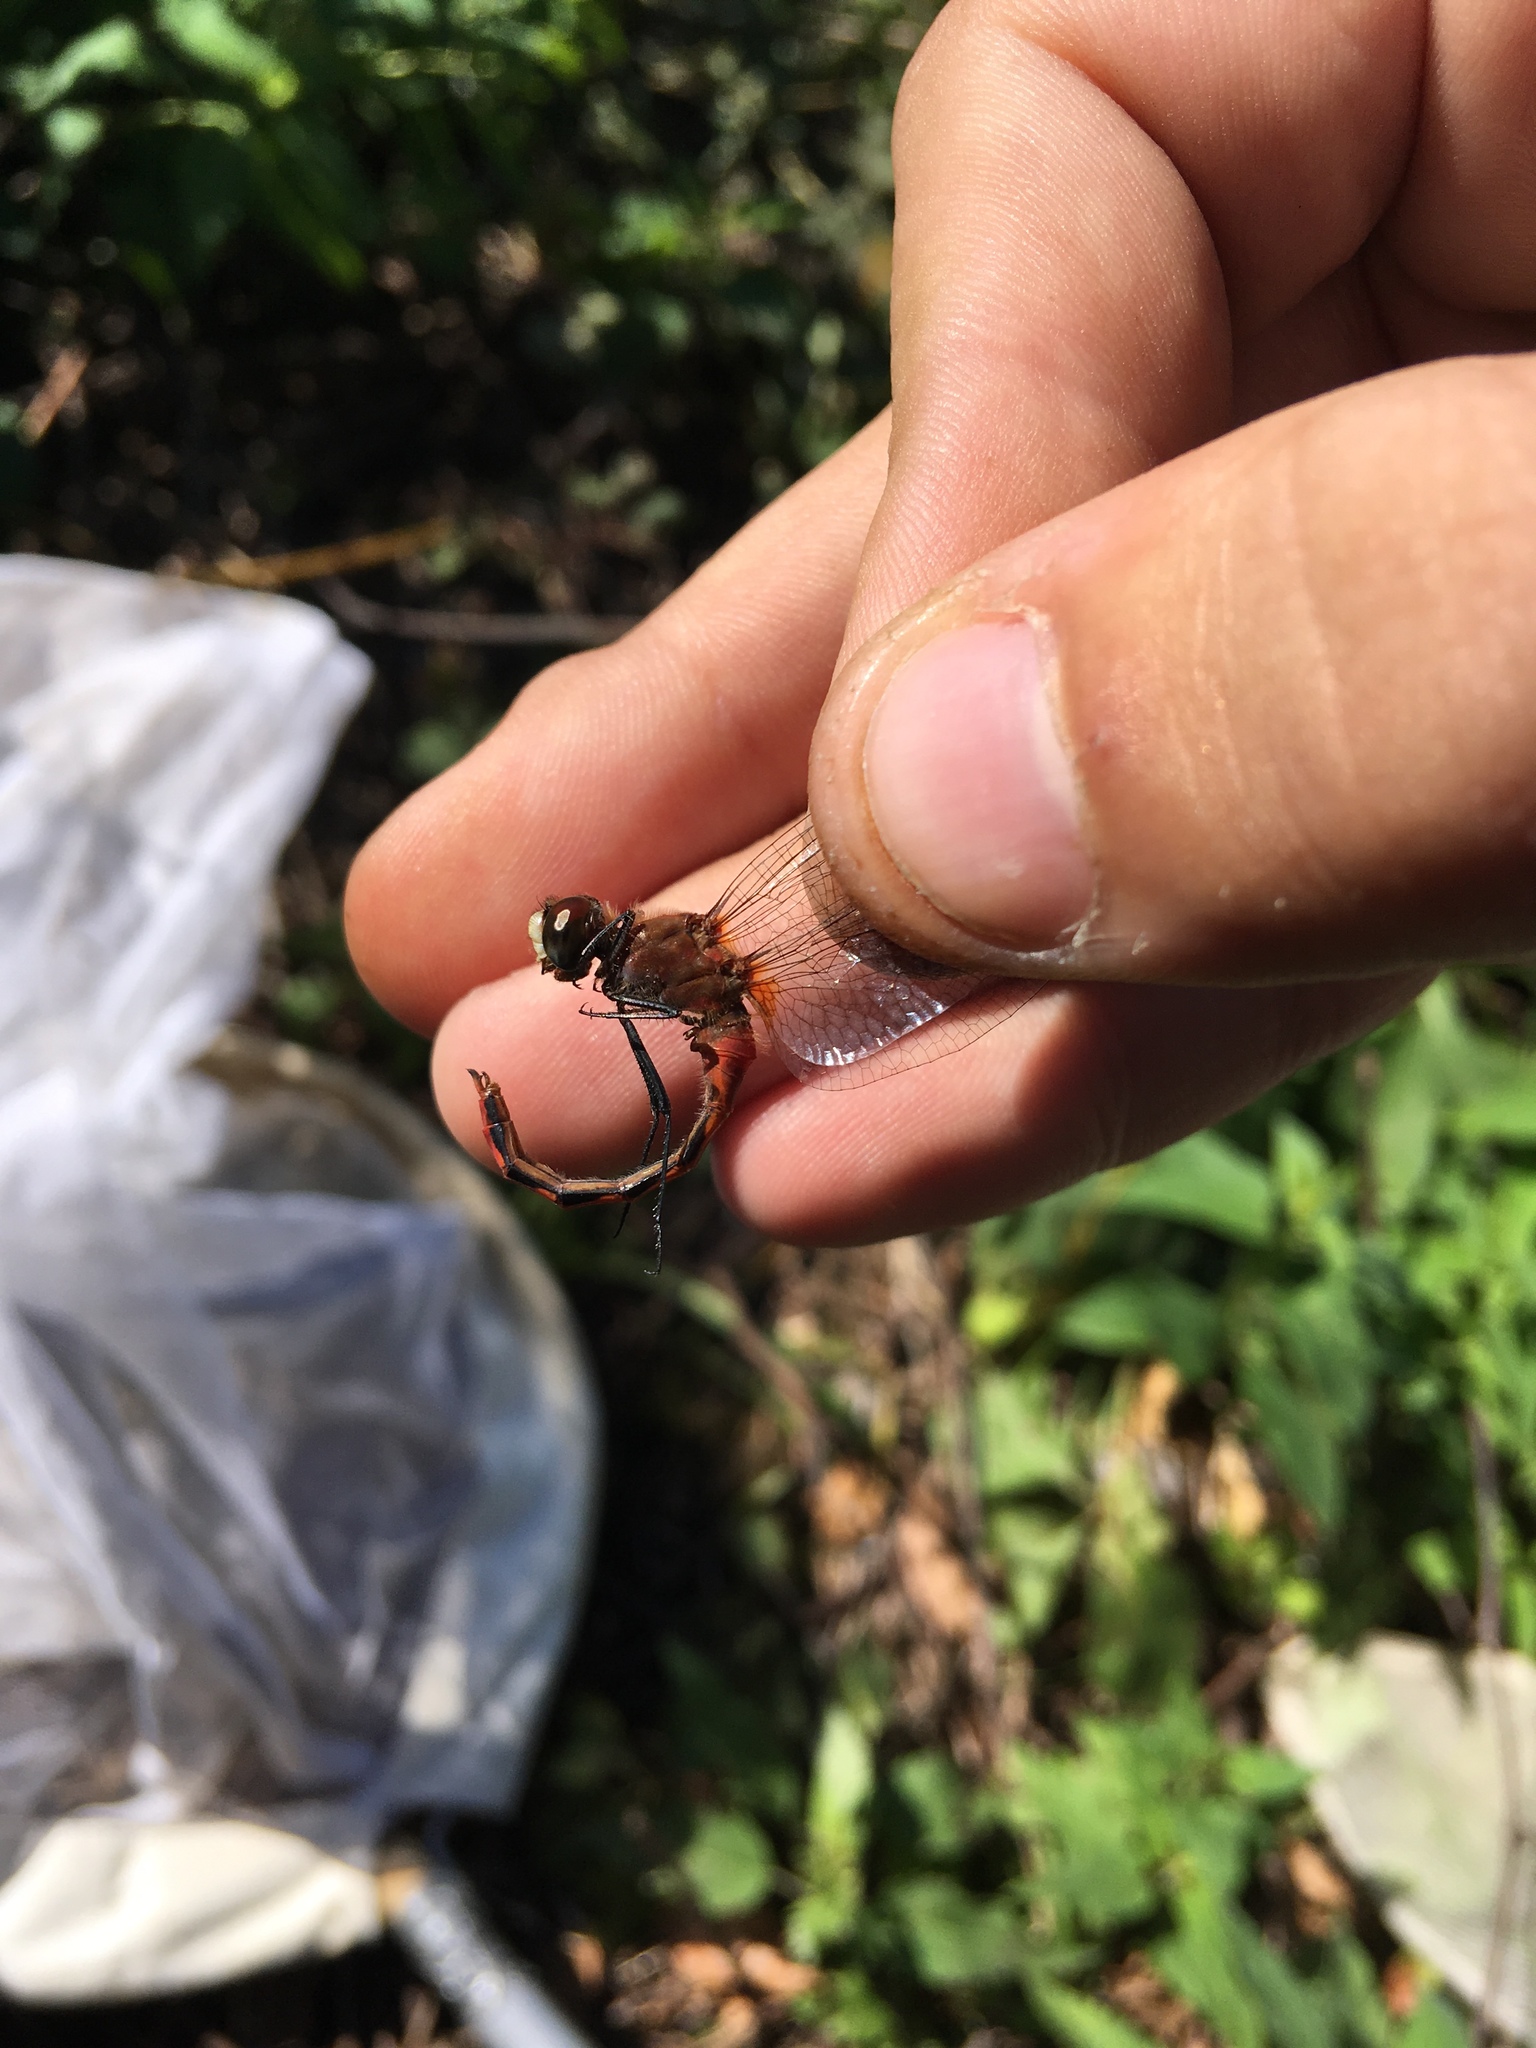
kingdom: Animalia
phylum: Arthropoda
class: Insecta
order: Odonata
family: Libellulidae
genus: Sympetrum
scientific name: Sympetrum obtrusum
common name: White-faced meadowhawk
